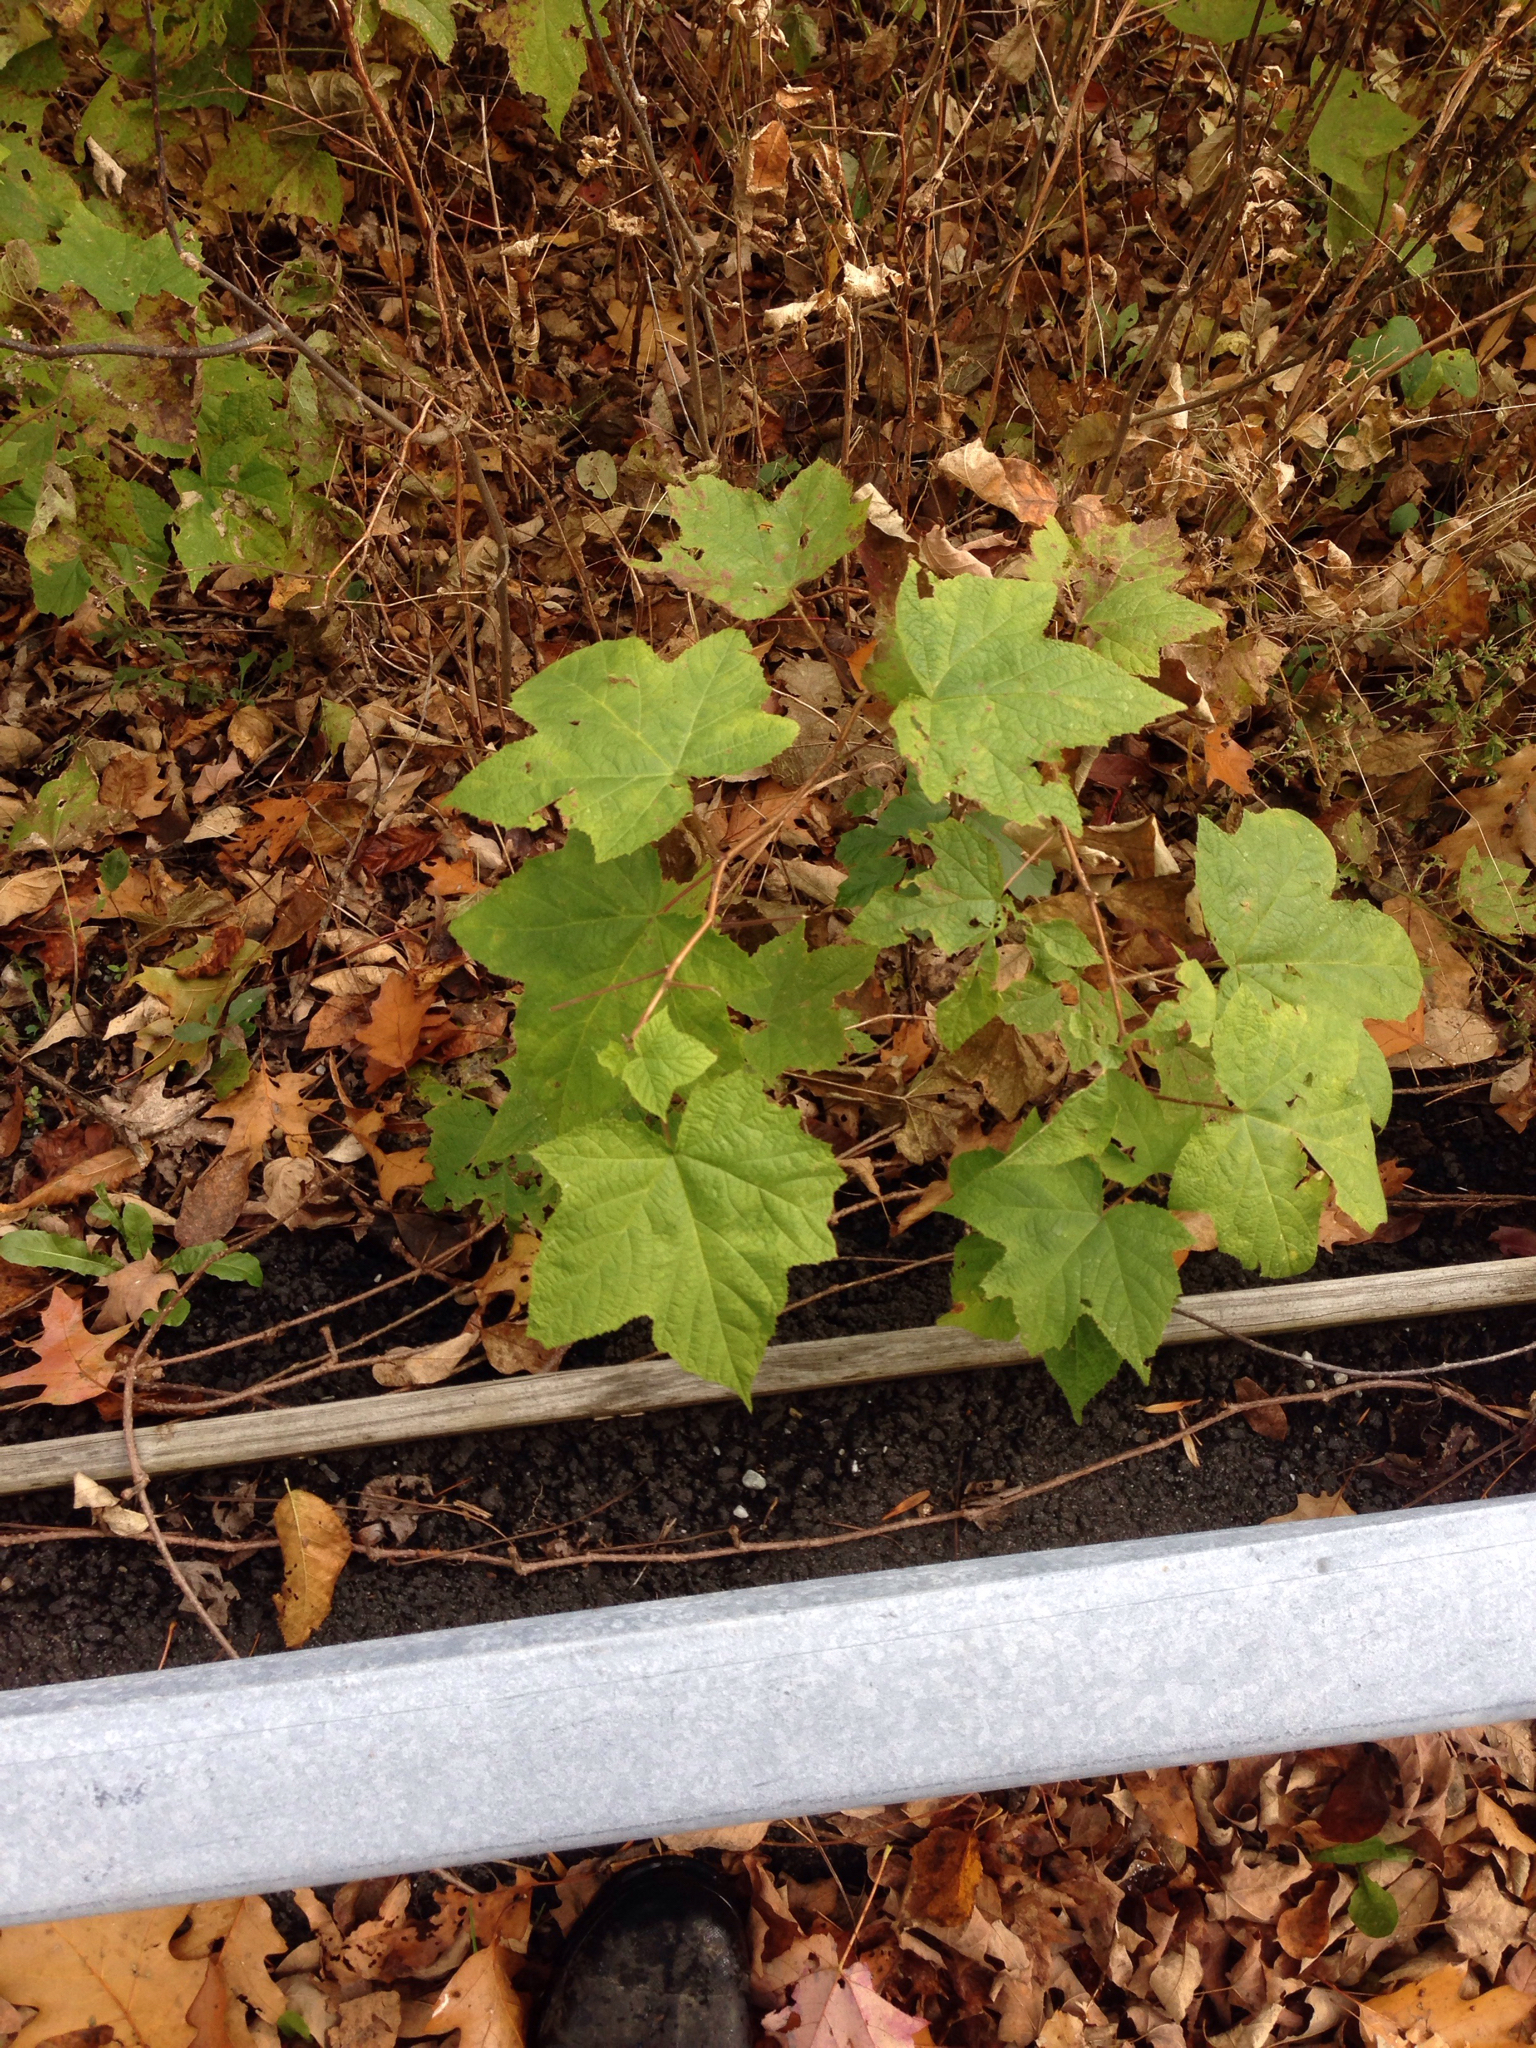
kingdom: Plantae
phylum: Tracheophyta
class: Magnoliopsida
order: Rosales
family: Rosaceae
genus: Rubus
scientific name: Rubus odoratus
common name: Purple-flowered raspberry
